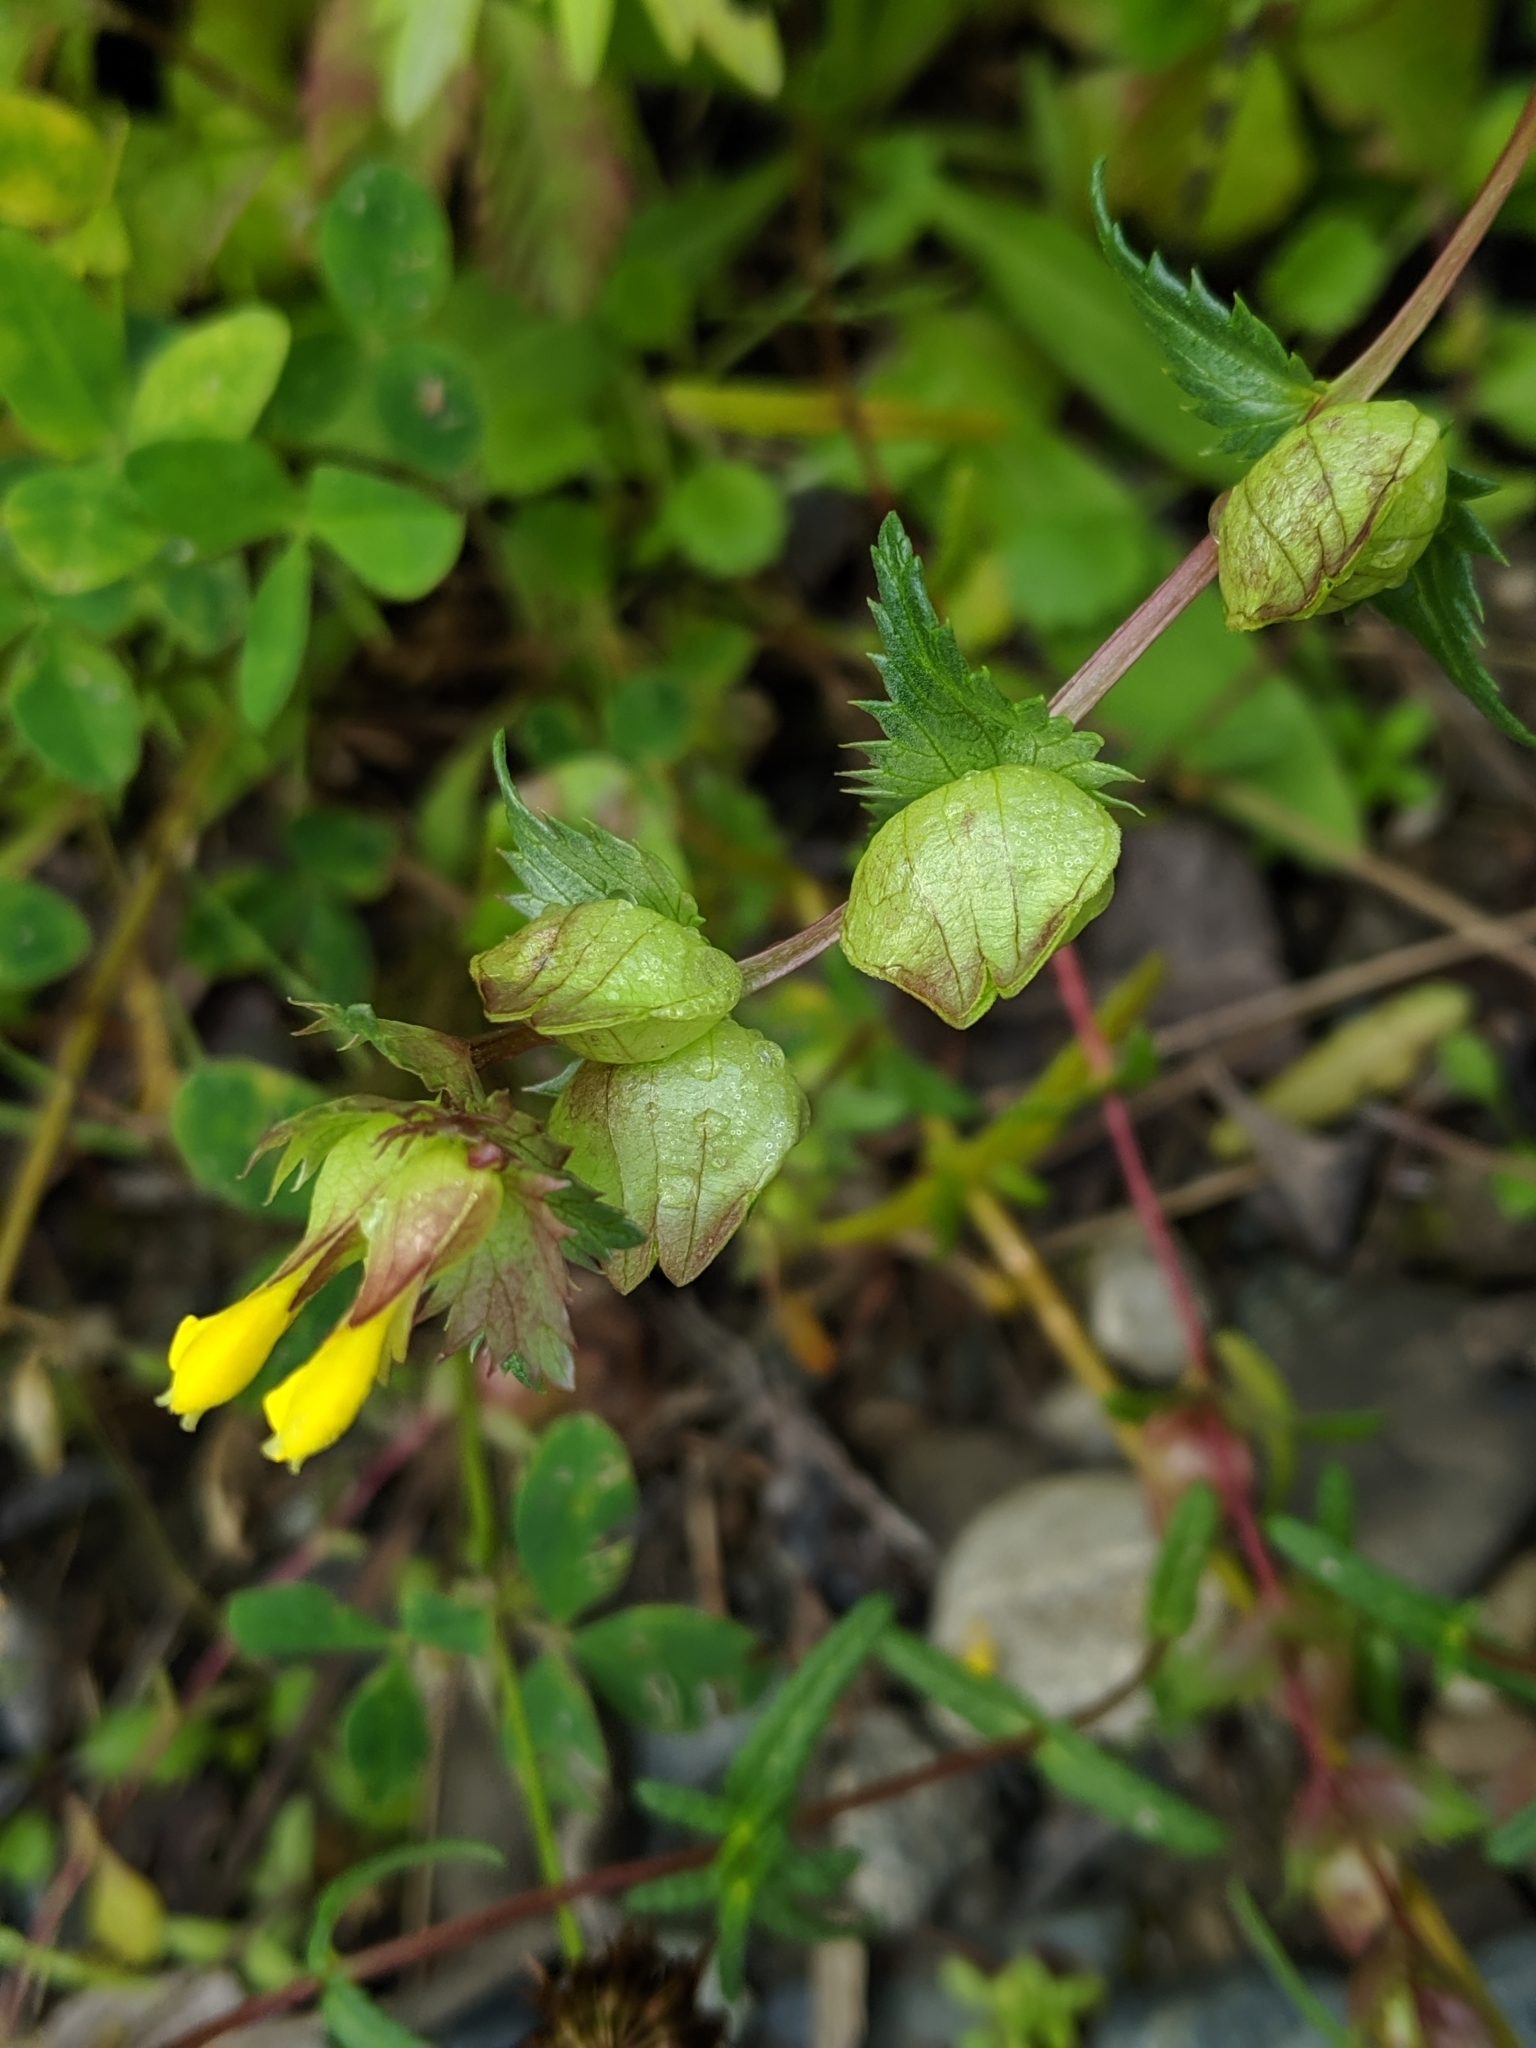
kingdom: Plantae
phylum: Tracheophyta
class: Magnoliopsida
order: Lamiales
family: Orobanchaceae
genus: Rhinanthus
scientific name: Rhinanthus minor
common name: Yellow-rattle
